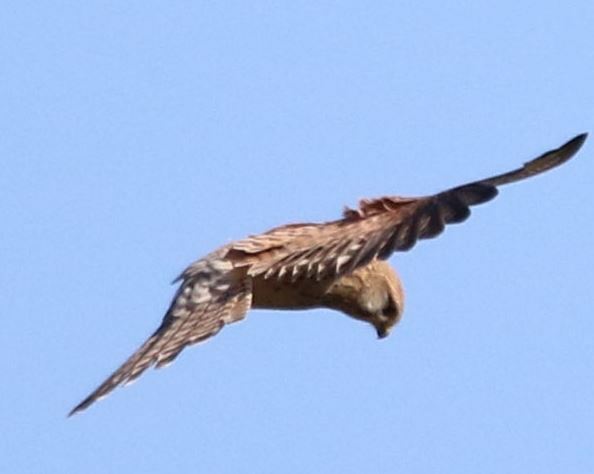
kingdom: Animalia
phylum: Chordata
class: Aves
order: Falconiformes
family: Falconidae
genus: Falco
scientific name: Falco tinnunculus
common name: Common kestrel
